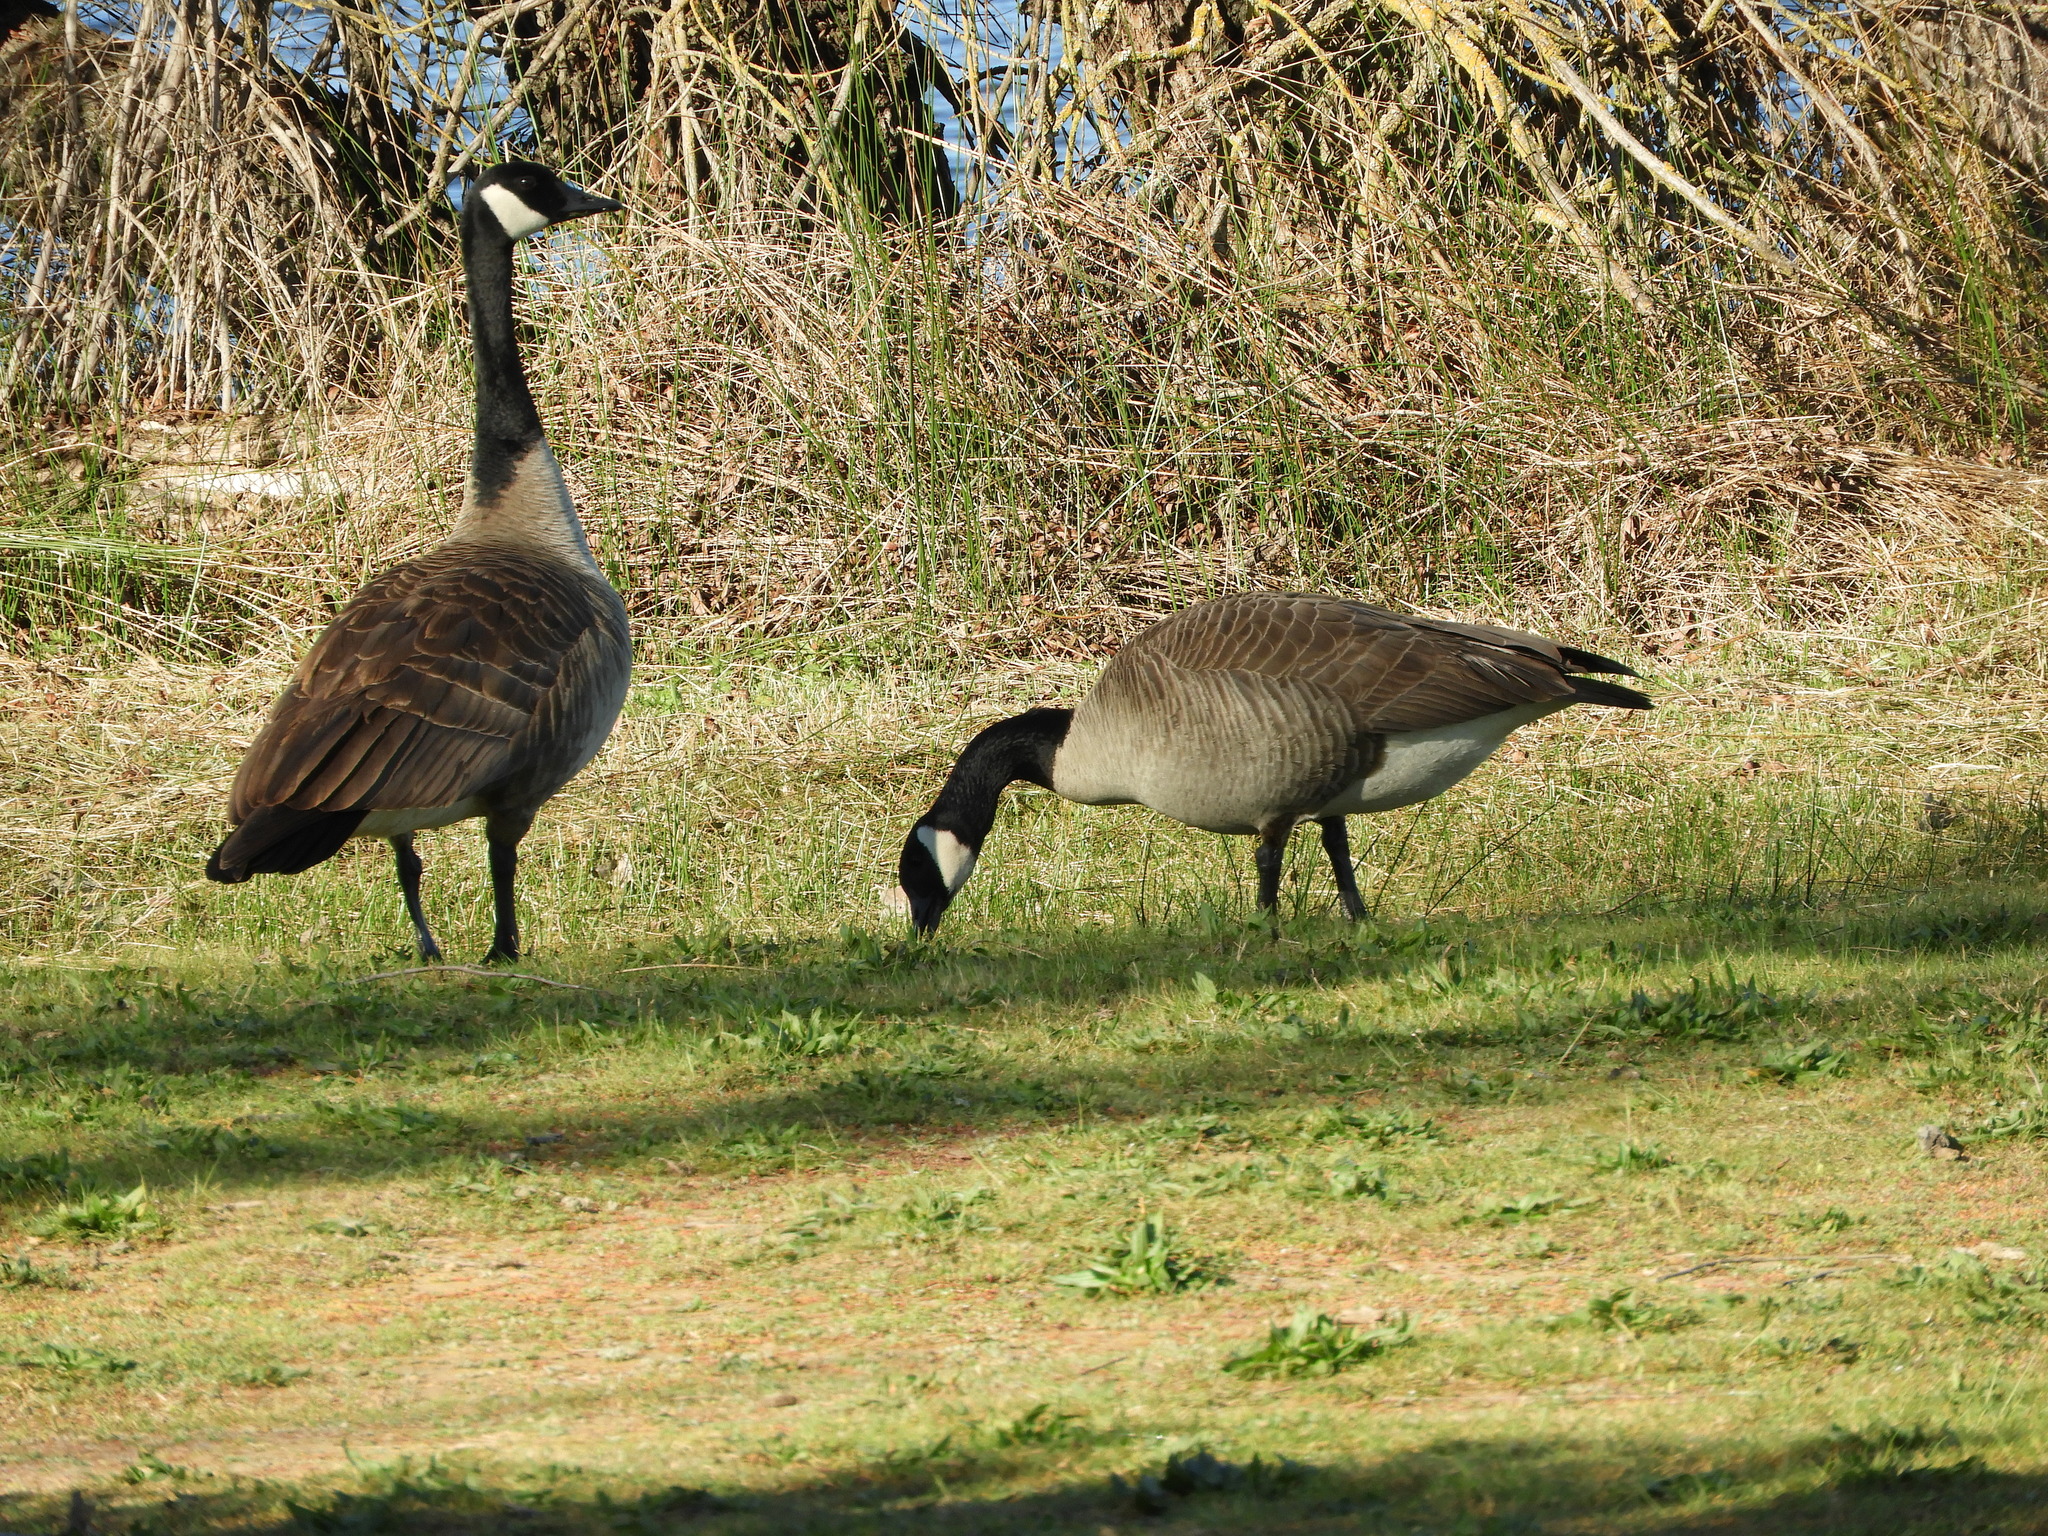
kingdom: Animalia
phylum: Chordata
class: Aves
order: Anseriformes
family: Anatidae
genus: Branta
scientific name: Branta canadensis
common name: Canada goose
